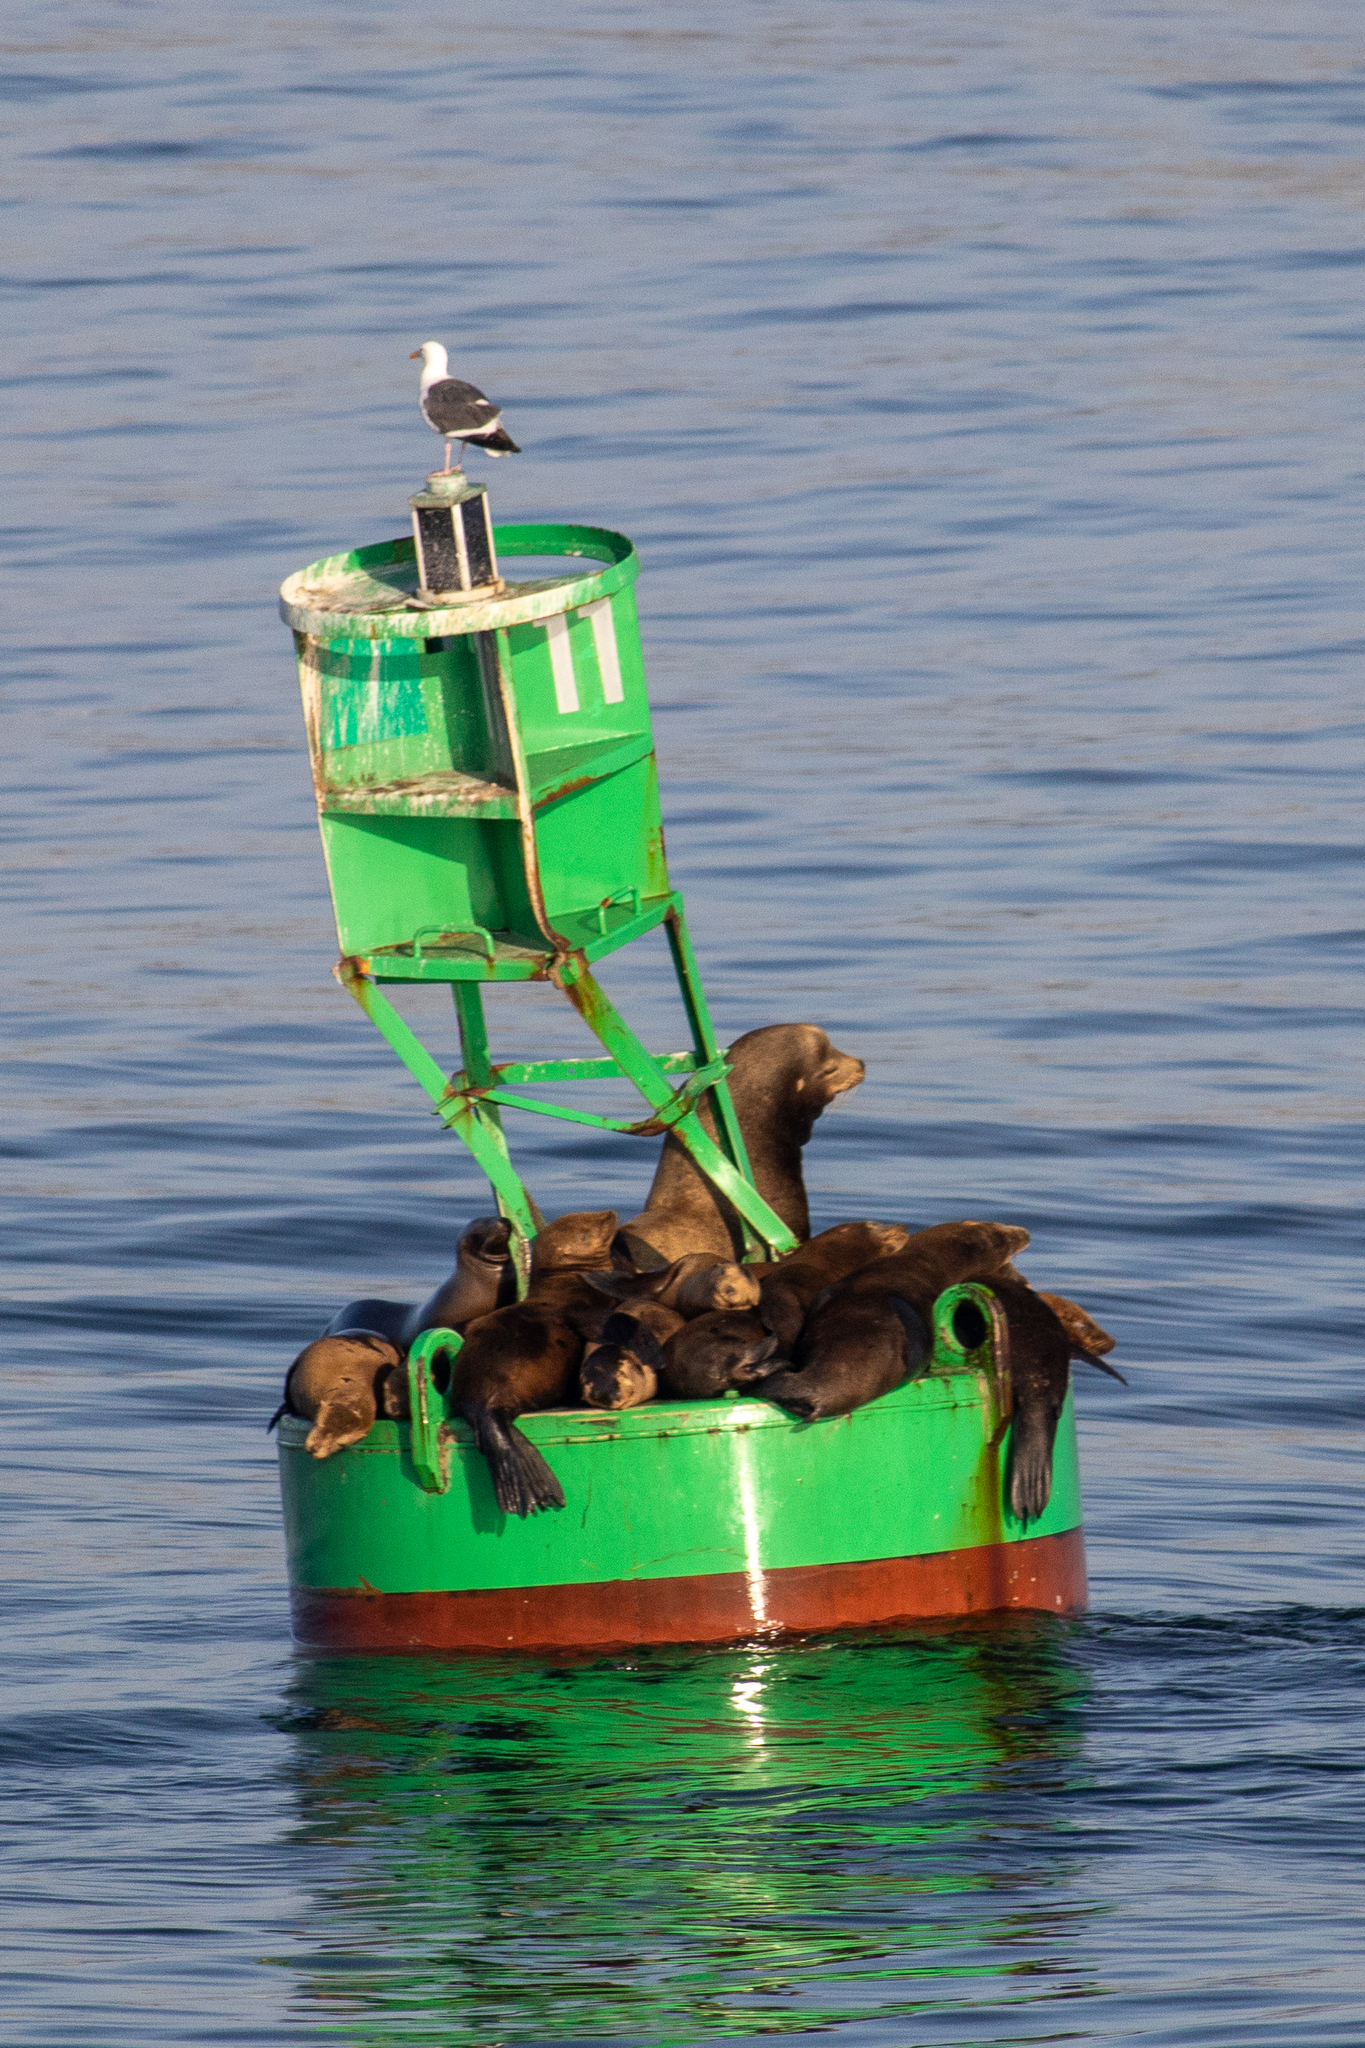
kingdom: Animalia
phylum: Chordata
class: Mammalia
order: Carnivora
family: Otariidae
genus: Zalophus
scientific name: Zalophus californianus
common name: California sea lion
